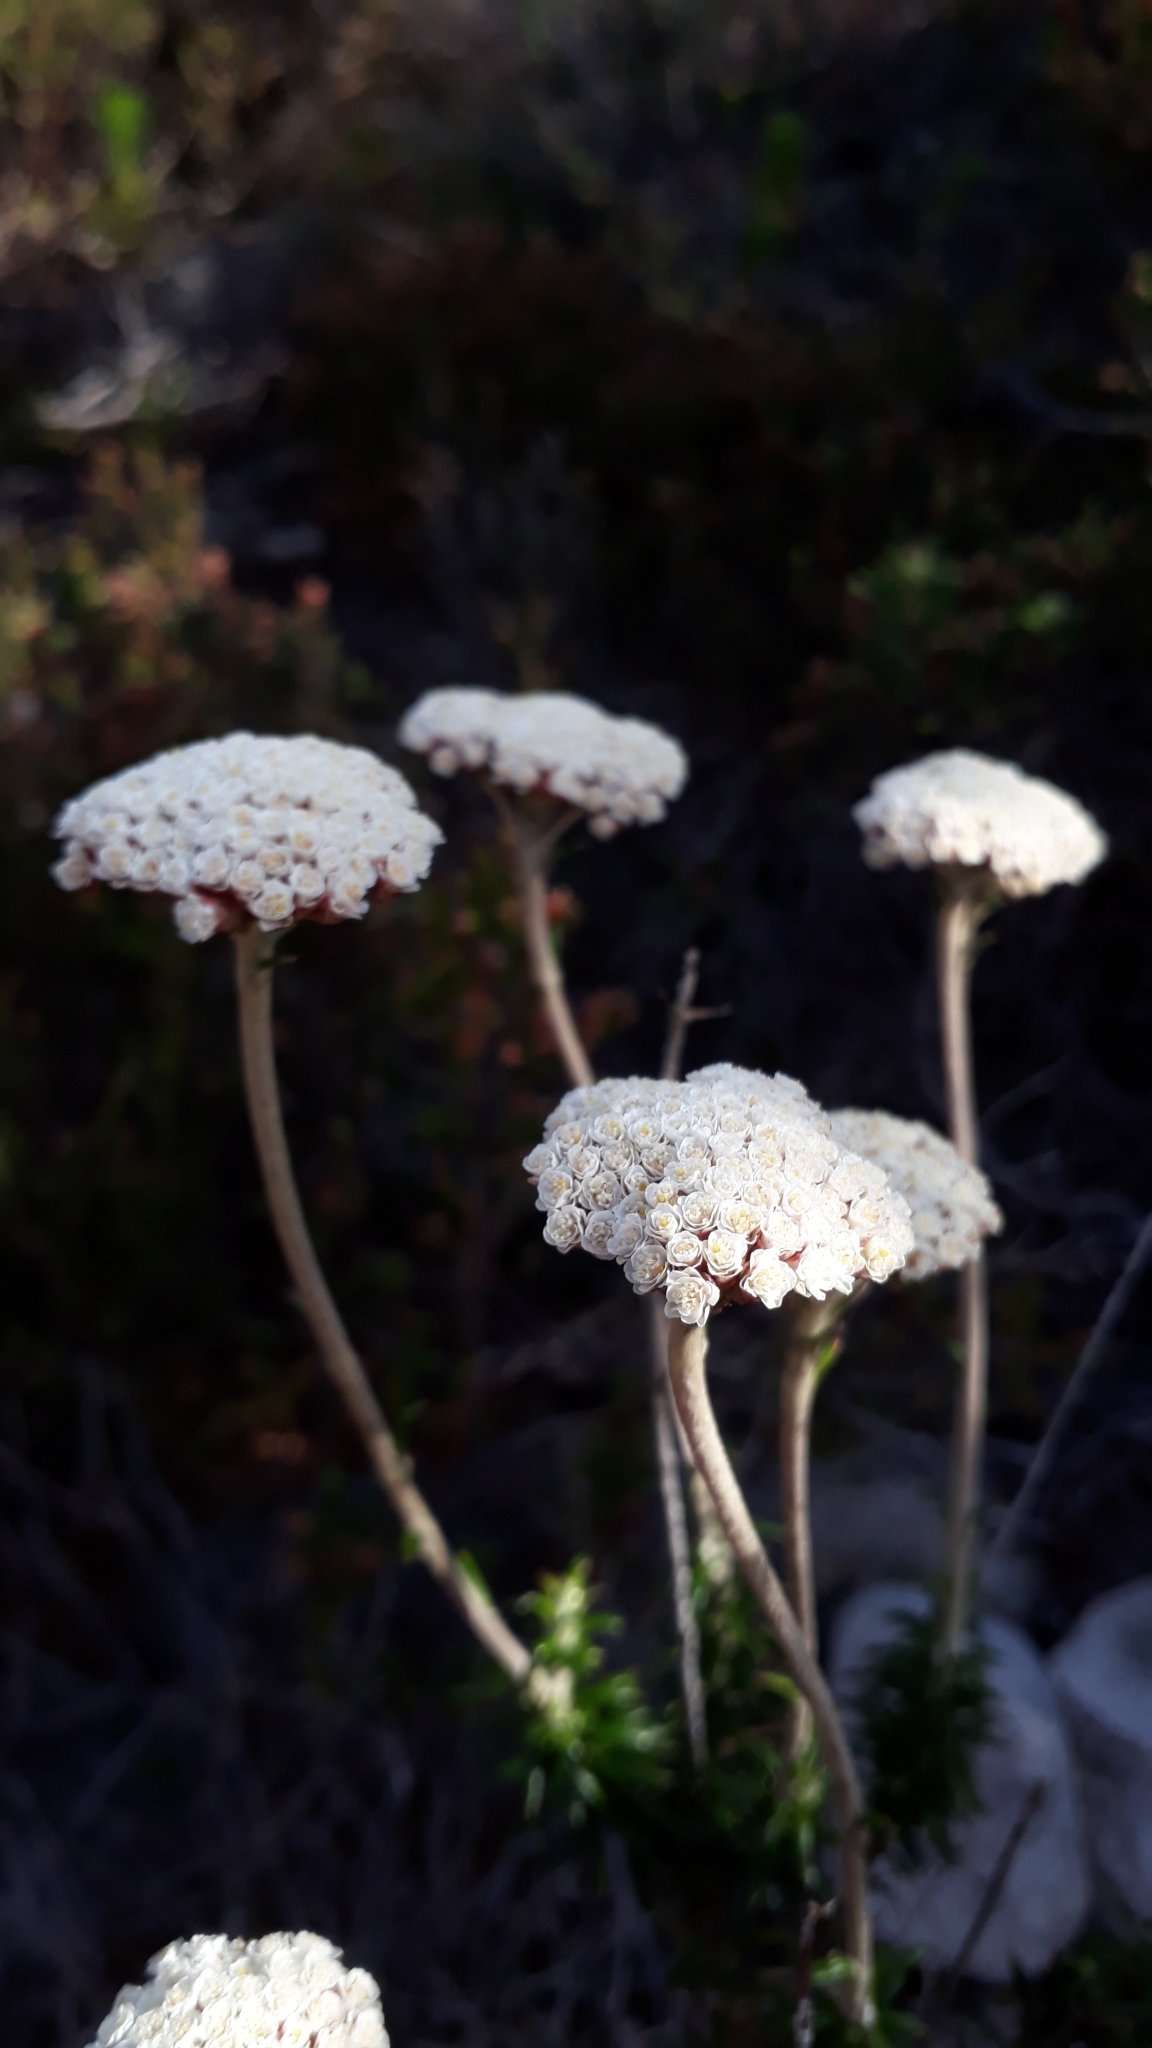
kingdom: Plantae
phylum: Tracheophyta
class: Magnoliopsida
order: Asterales
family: Asteraceae
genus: Anaxeton
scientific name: Anaxeton arborescens
